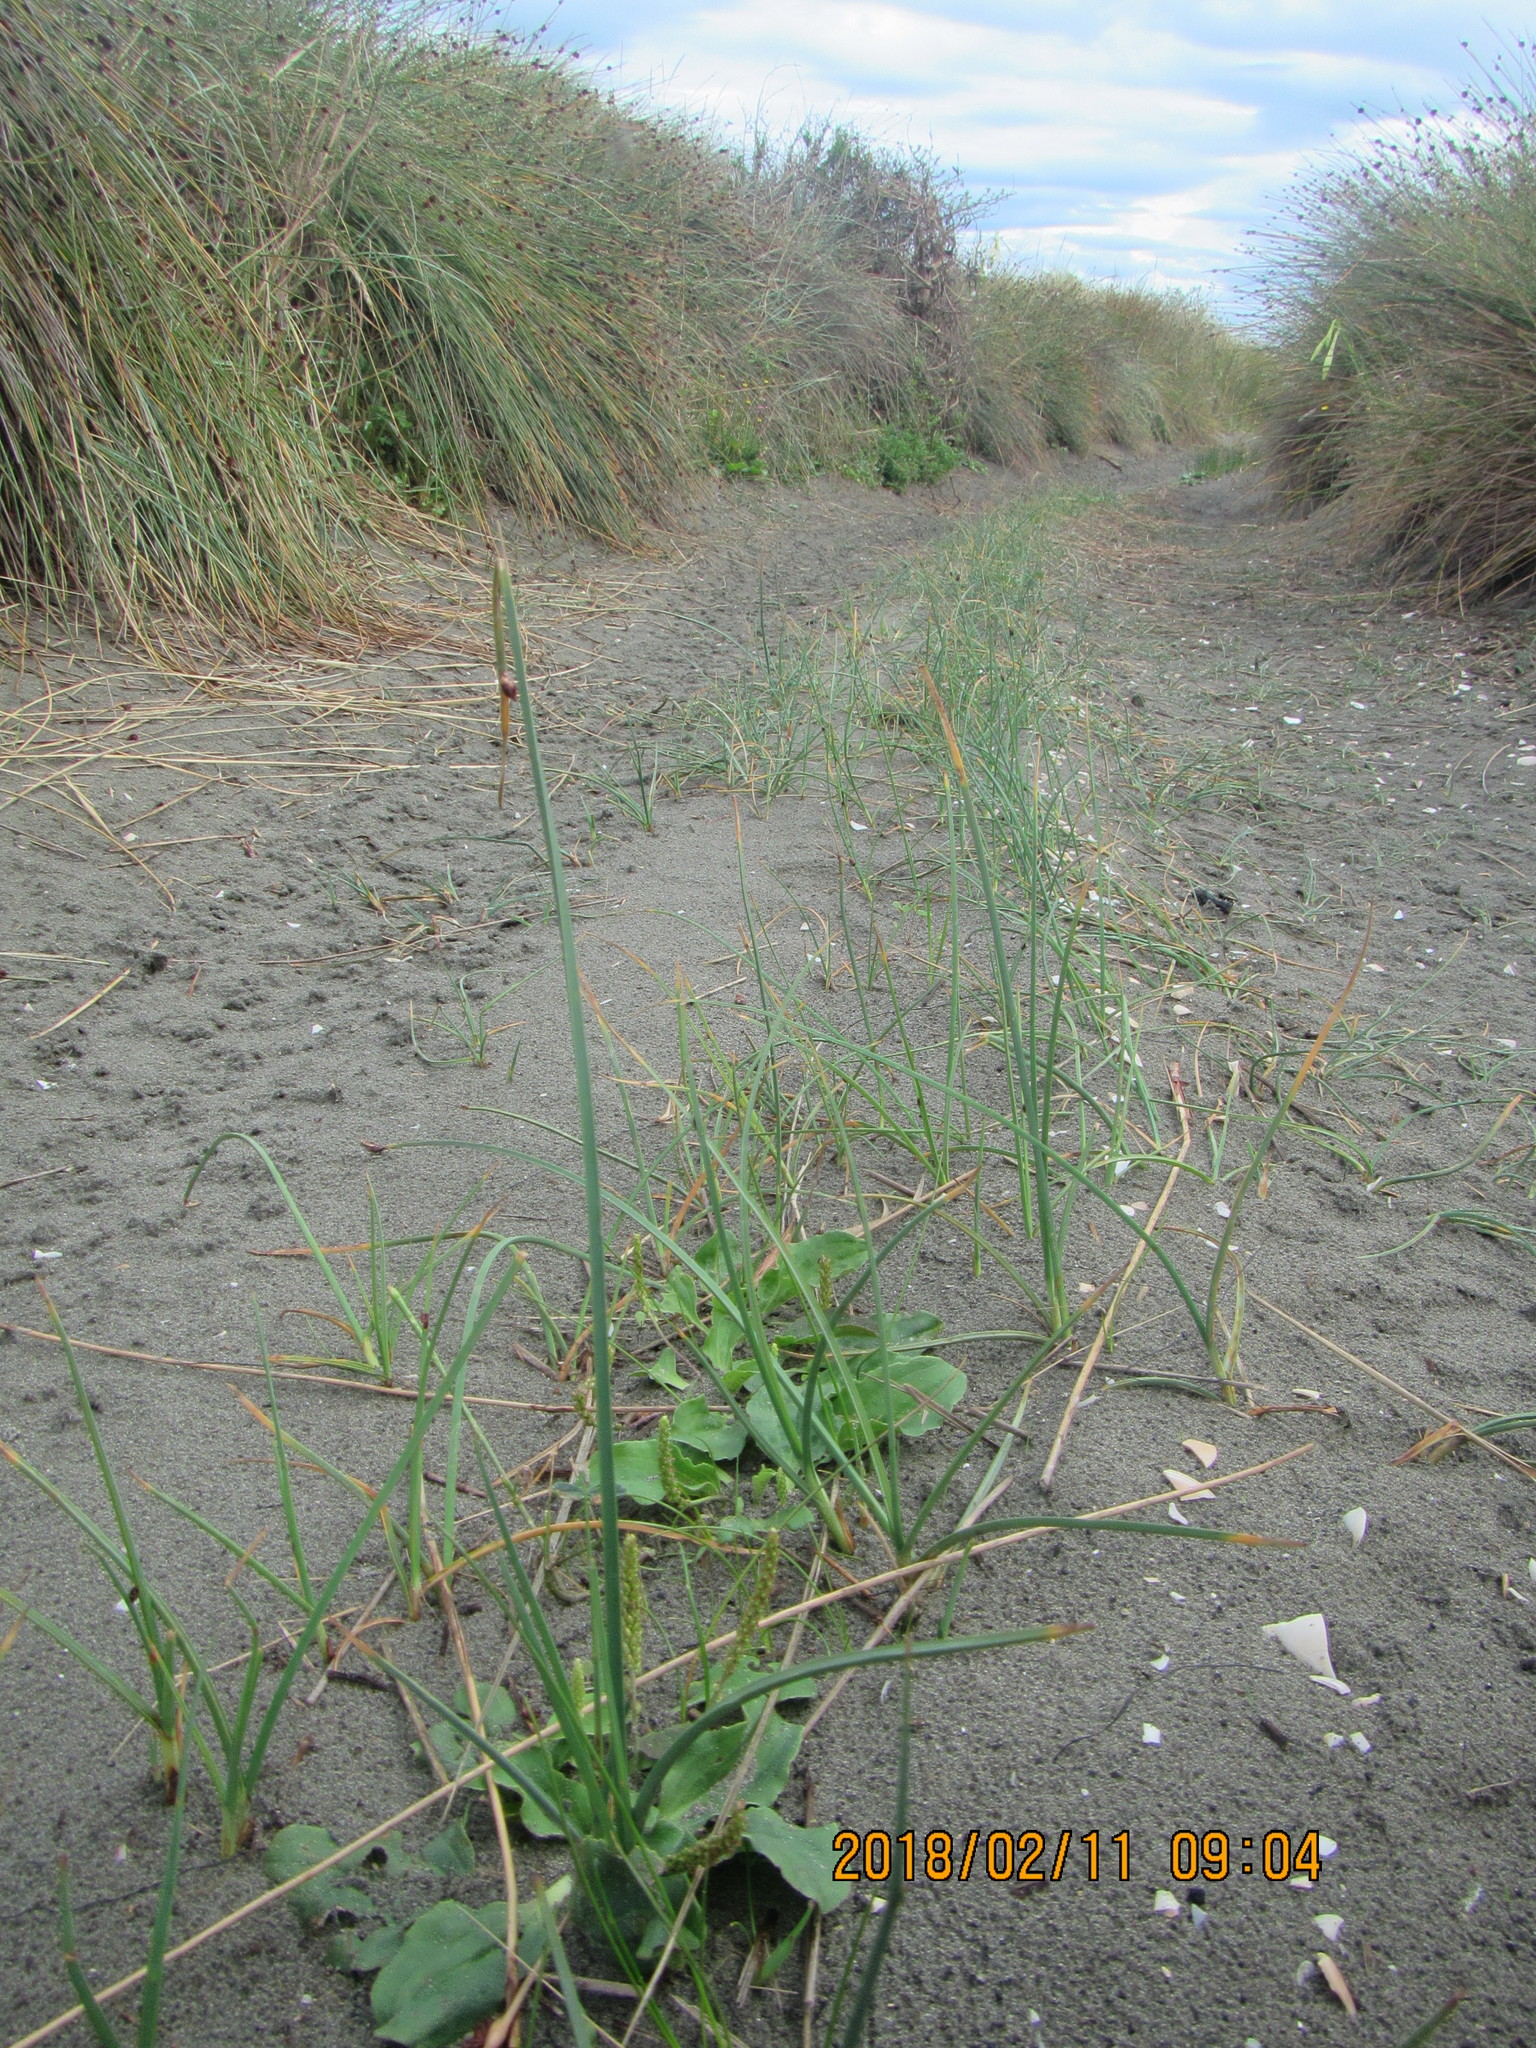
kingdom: Plantae
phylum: Tracheophyta
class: Liliopsida
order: Poales
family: Cyperaceae
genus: Schoenoplectus
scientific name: Schoenoplectus pungens
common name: Sharp club-rush
